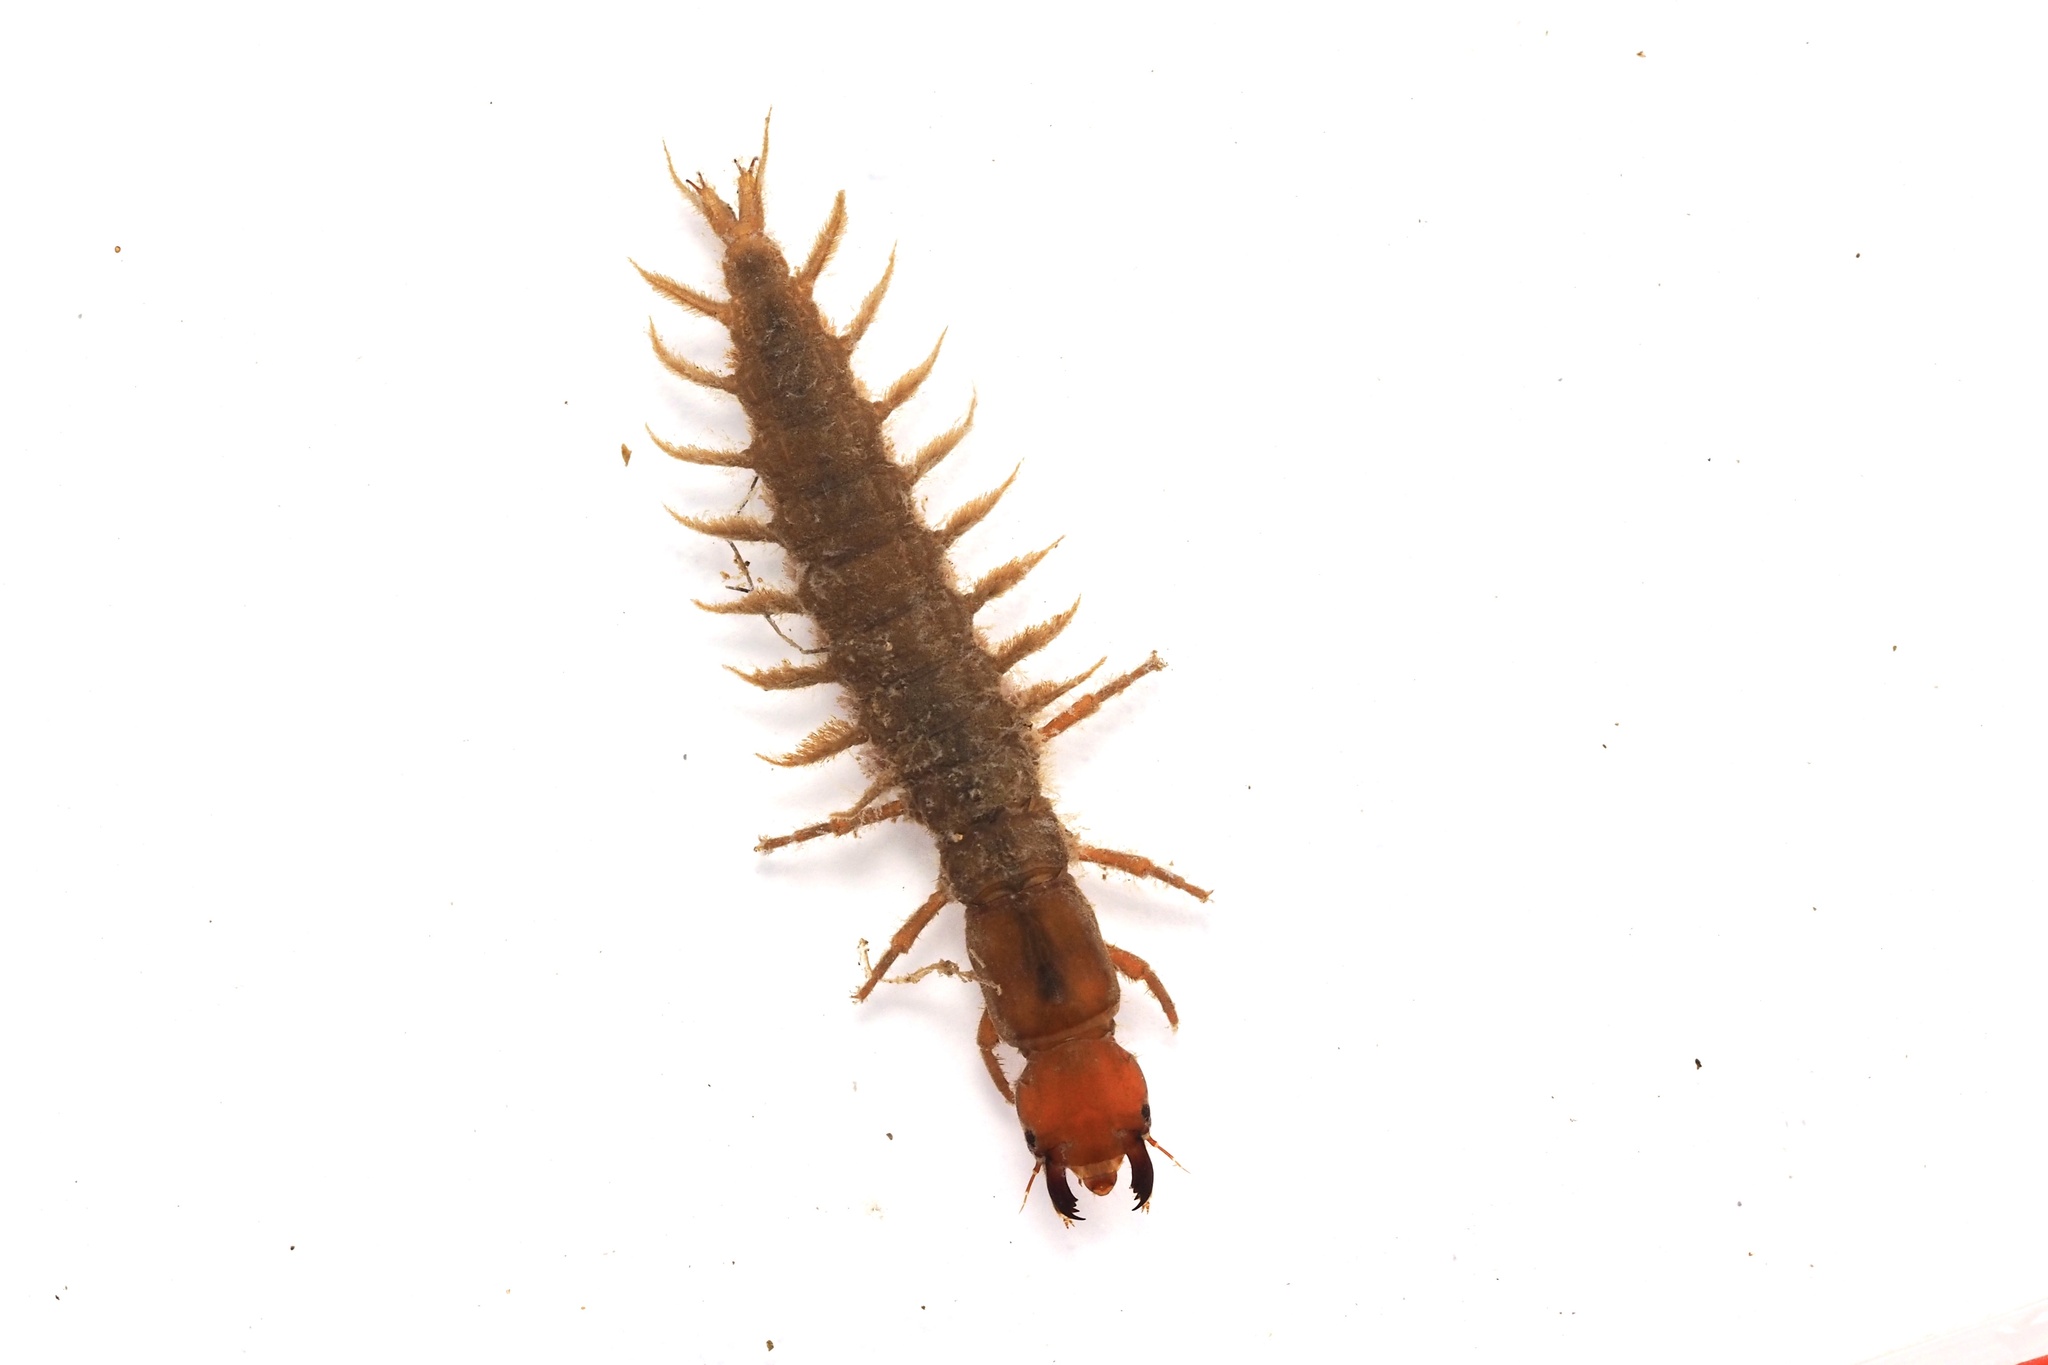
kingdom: Animalia
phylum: Arthropoda
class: Insecta
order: Megaloptera
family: Corydalidae
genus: Protohermes
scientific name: Protohermes grandis
